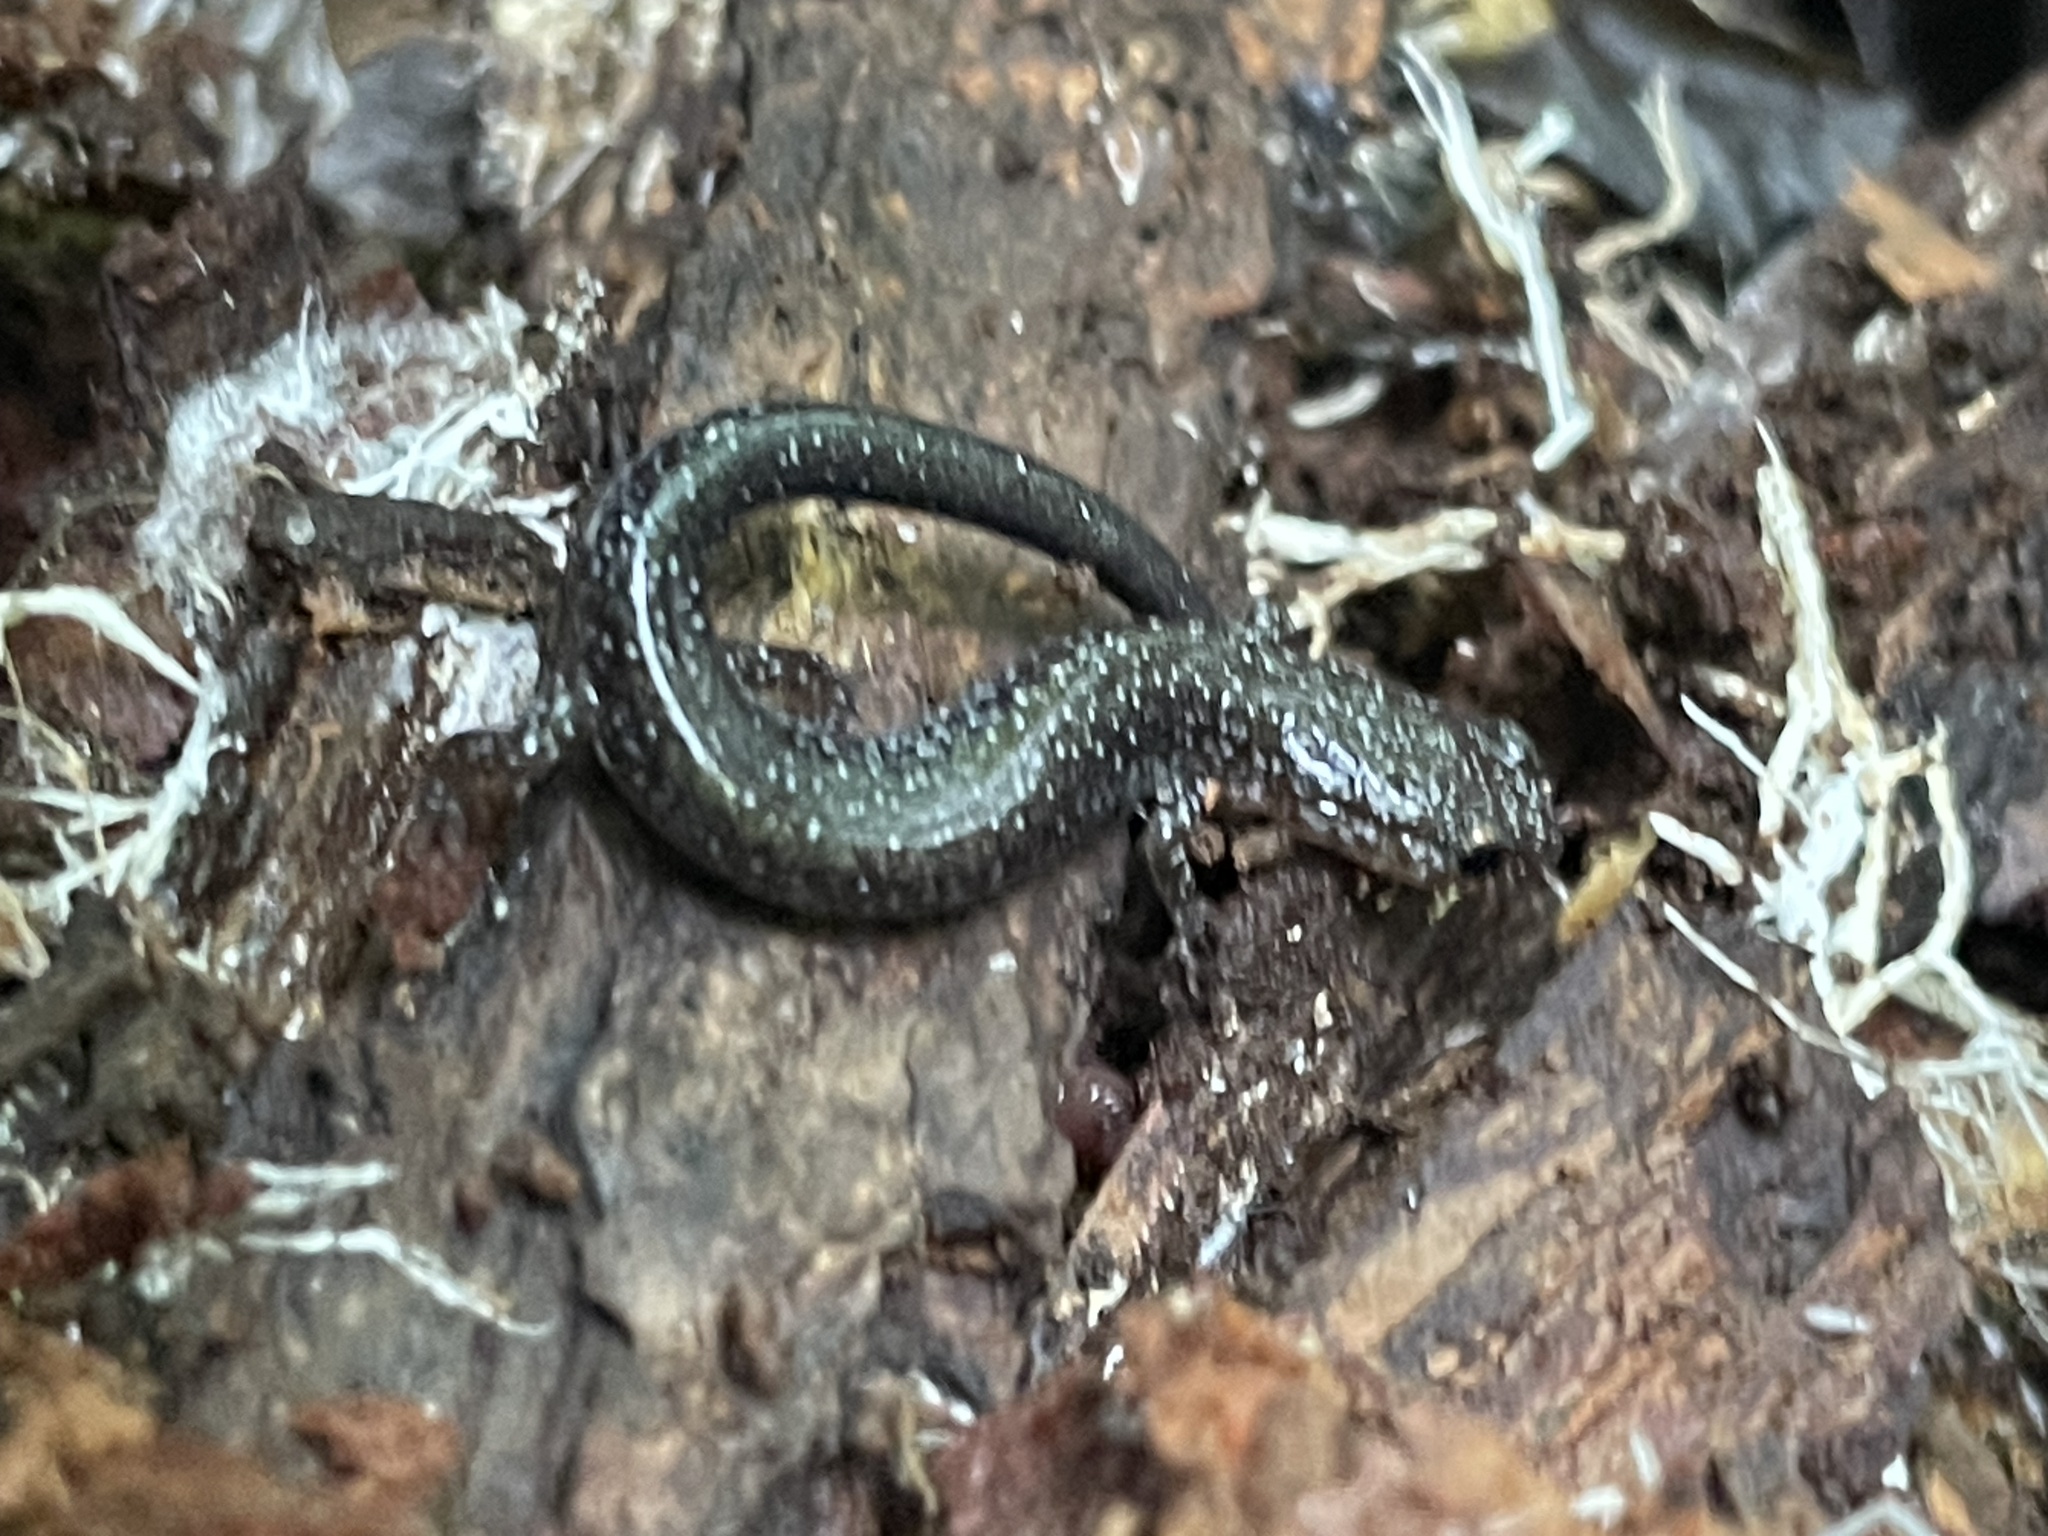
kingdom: Animalia
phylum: Chordata
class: Amphibia
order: Caudata
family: Plethodontidae
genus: Plethodon
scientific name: Plethodon cinereus
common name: Redback salamander
